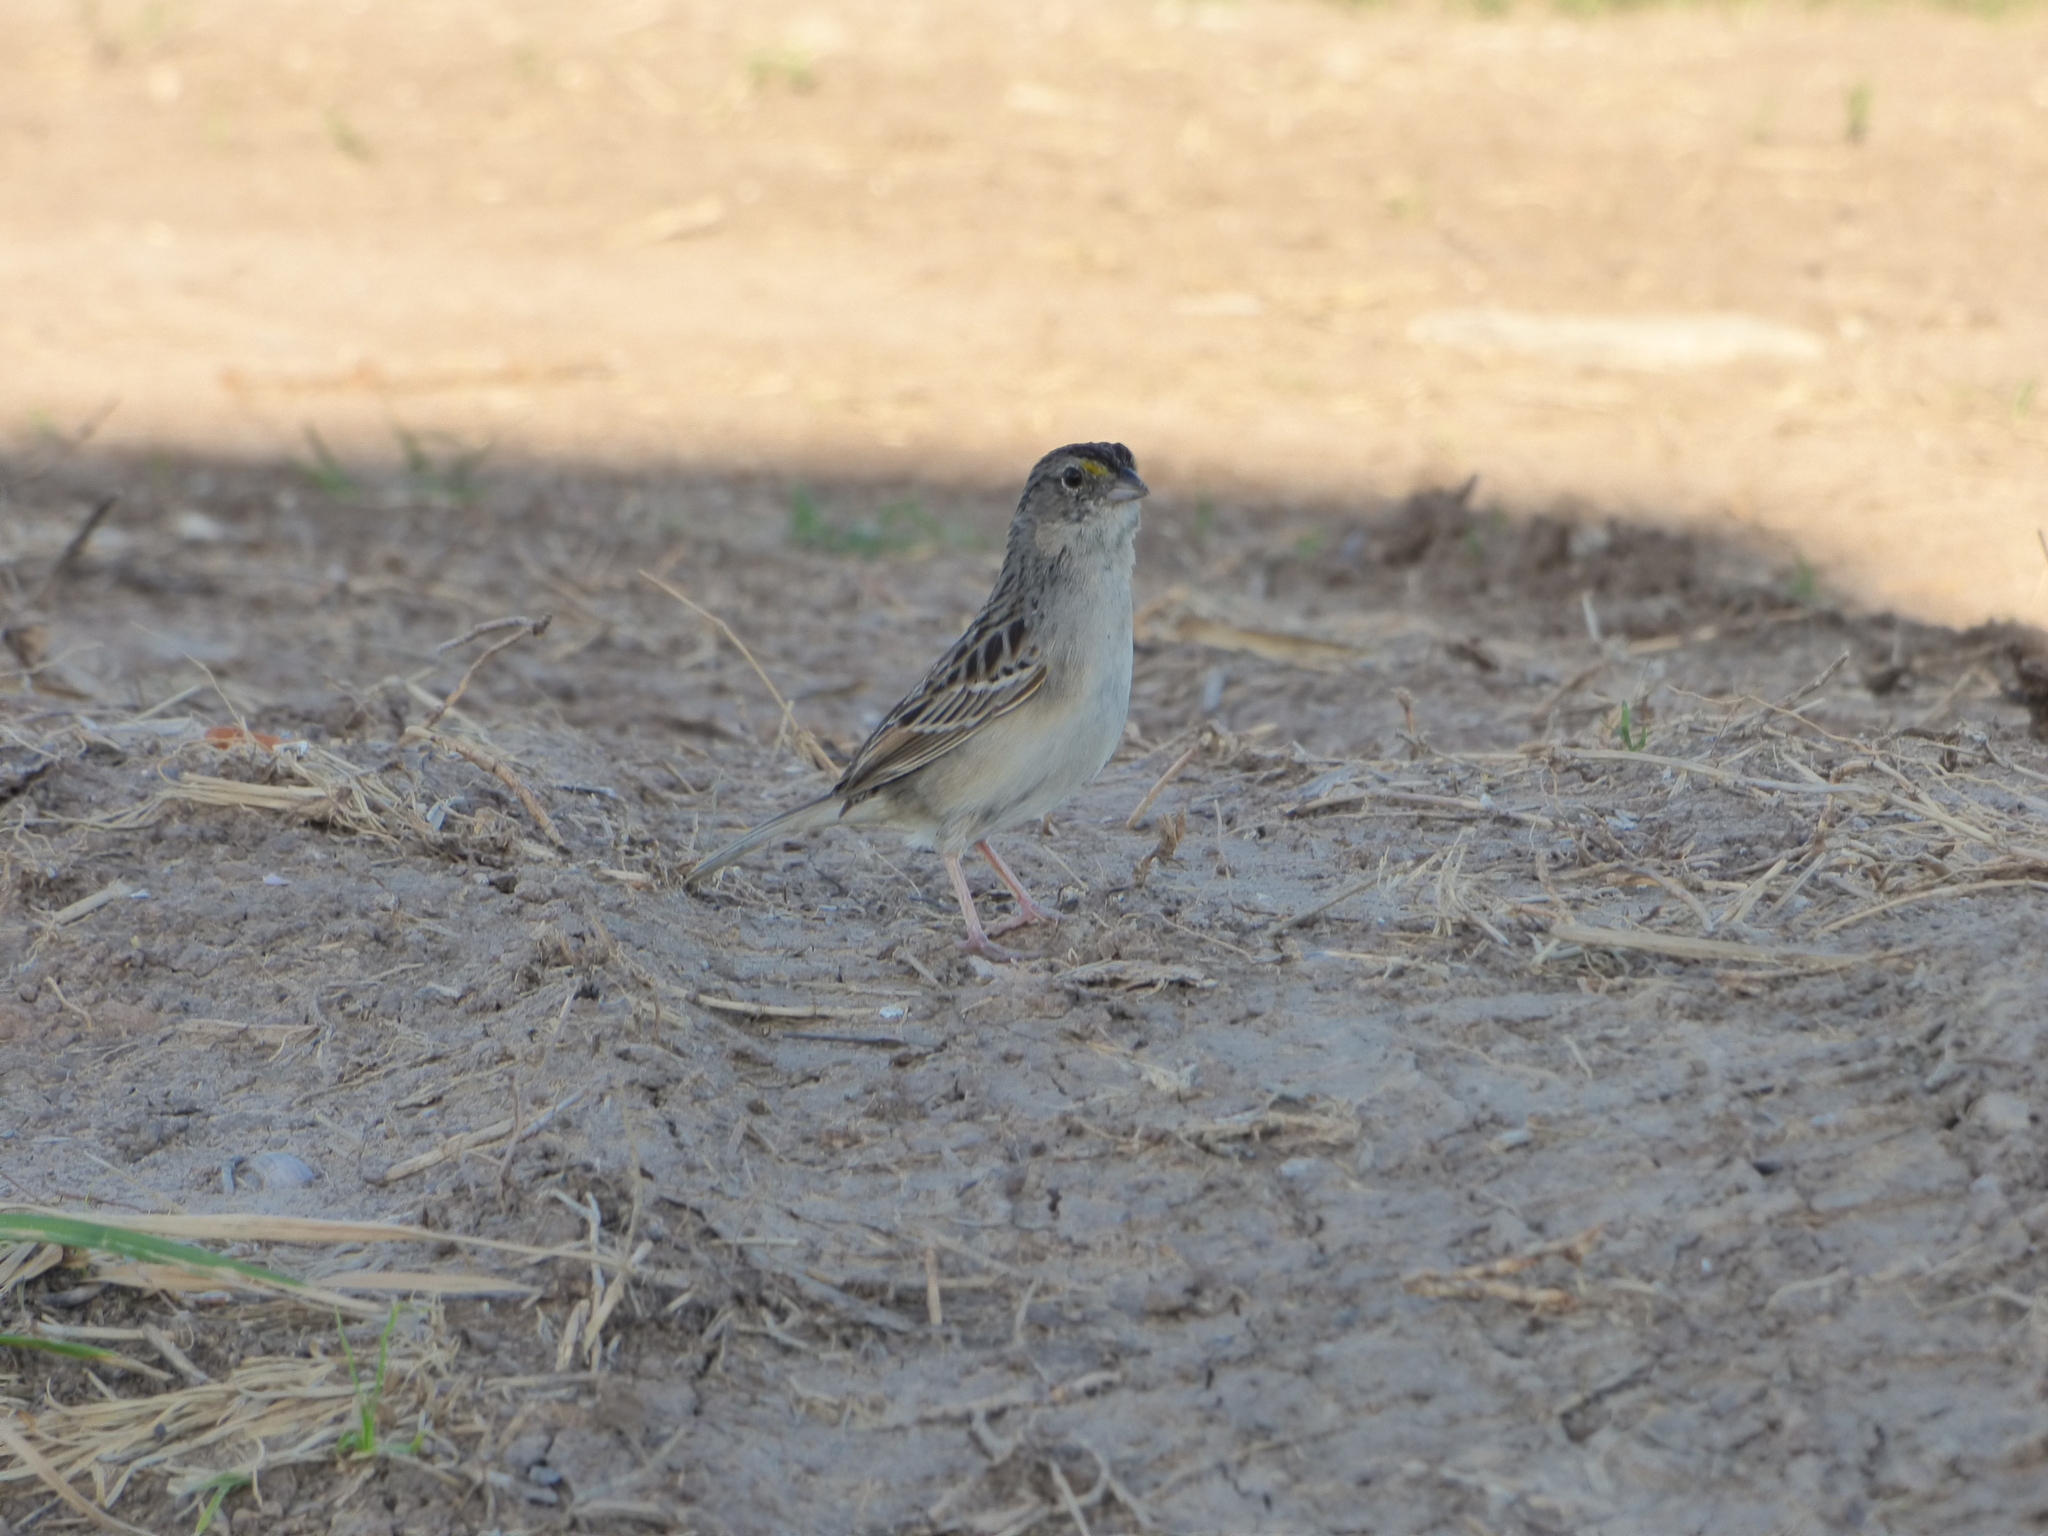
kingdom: Animalia
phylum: Chordata
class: Aves
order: Passeriformes
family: Passerellidae
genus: Ammodramus
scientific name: Ammodramus humeralis
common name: Grassland sparrow
